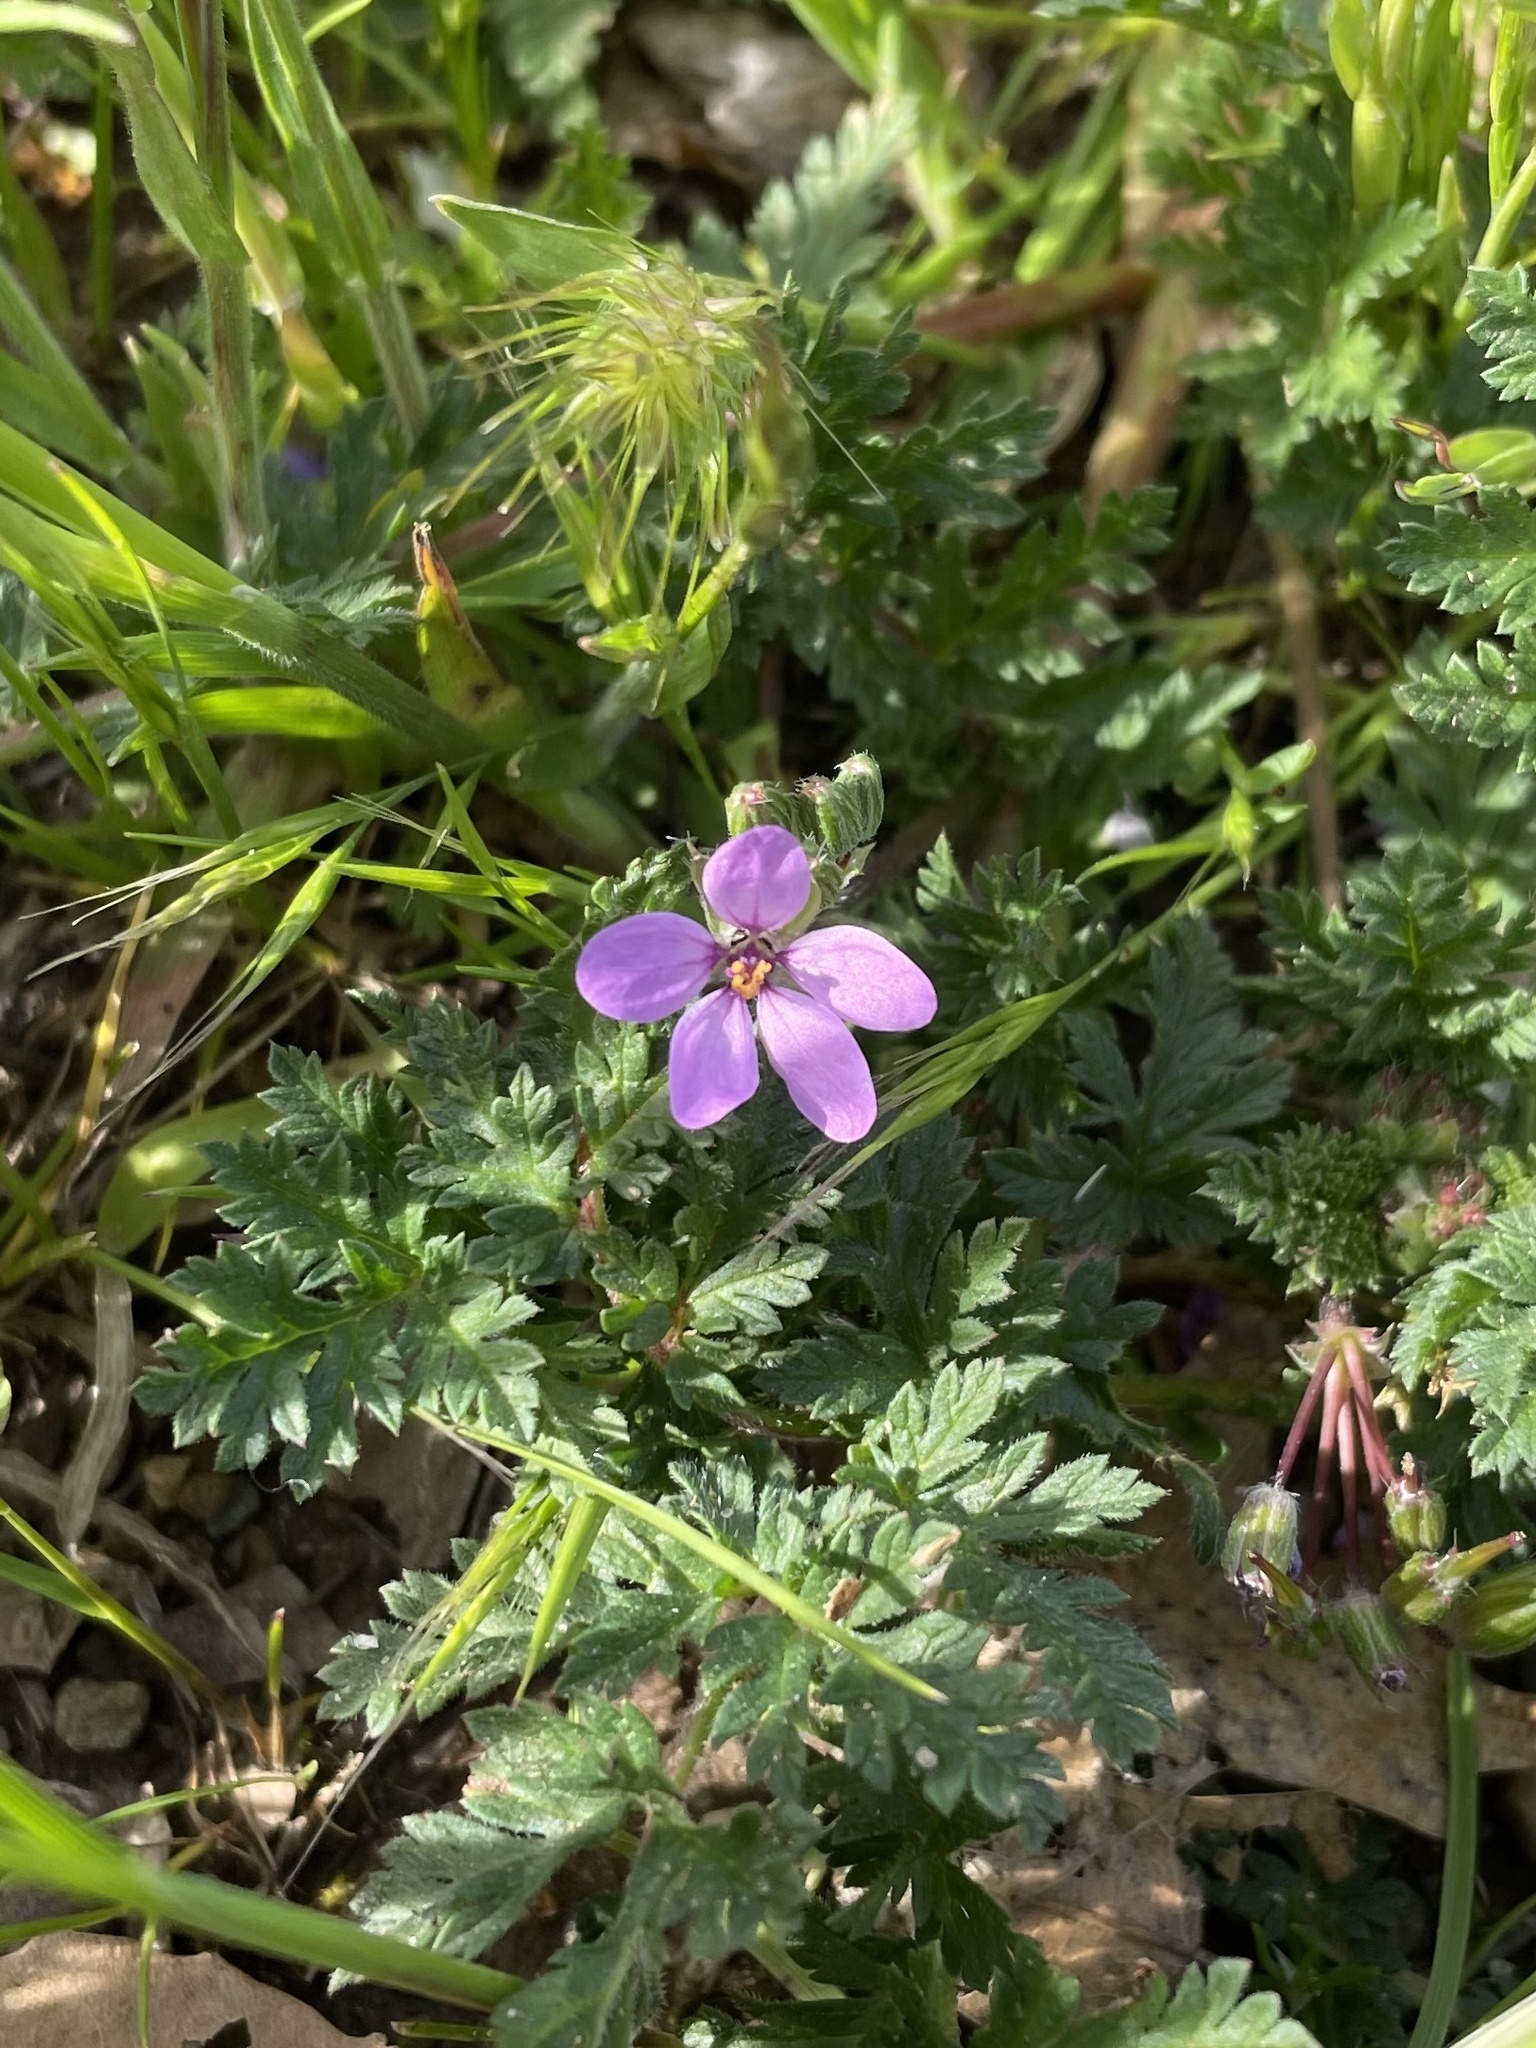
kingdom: Plantae
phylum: Tracheophyta
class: Magnoliopsida
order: Geraniales
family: Geraniaceae
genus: Erodium
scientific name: Erodium cicutarium
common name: Common stork's-bill
